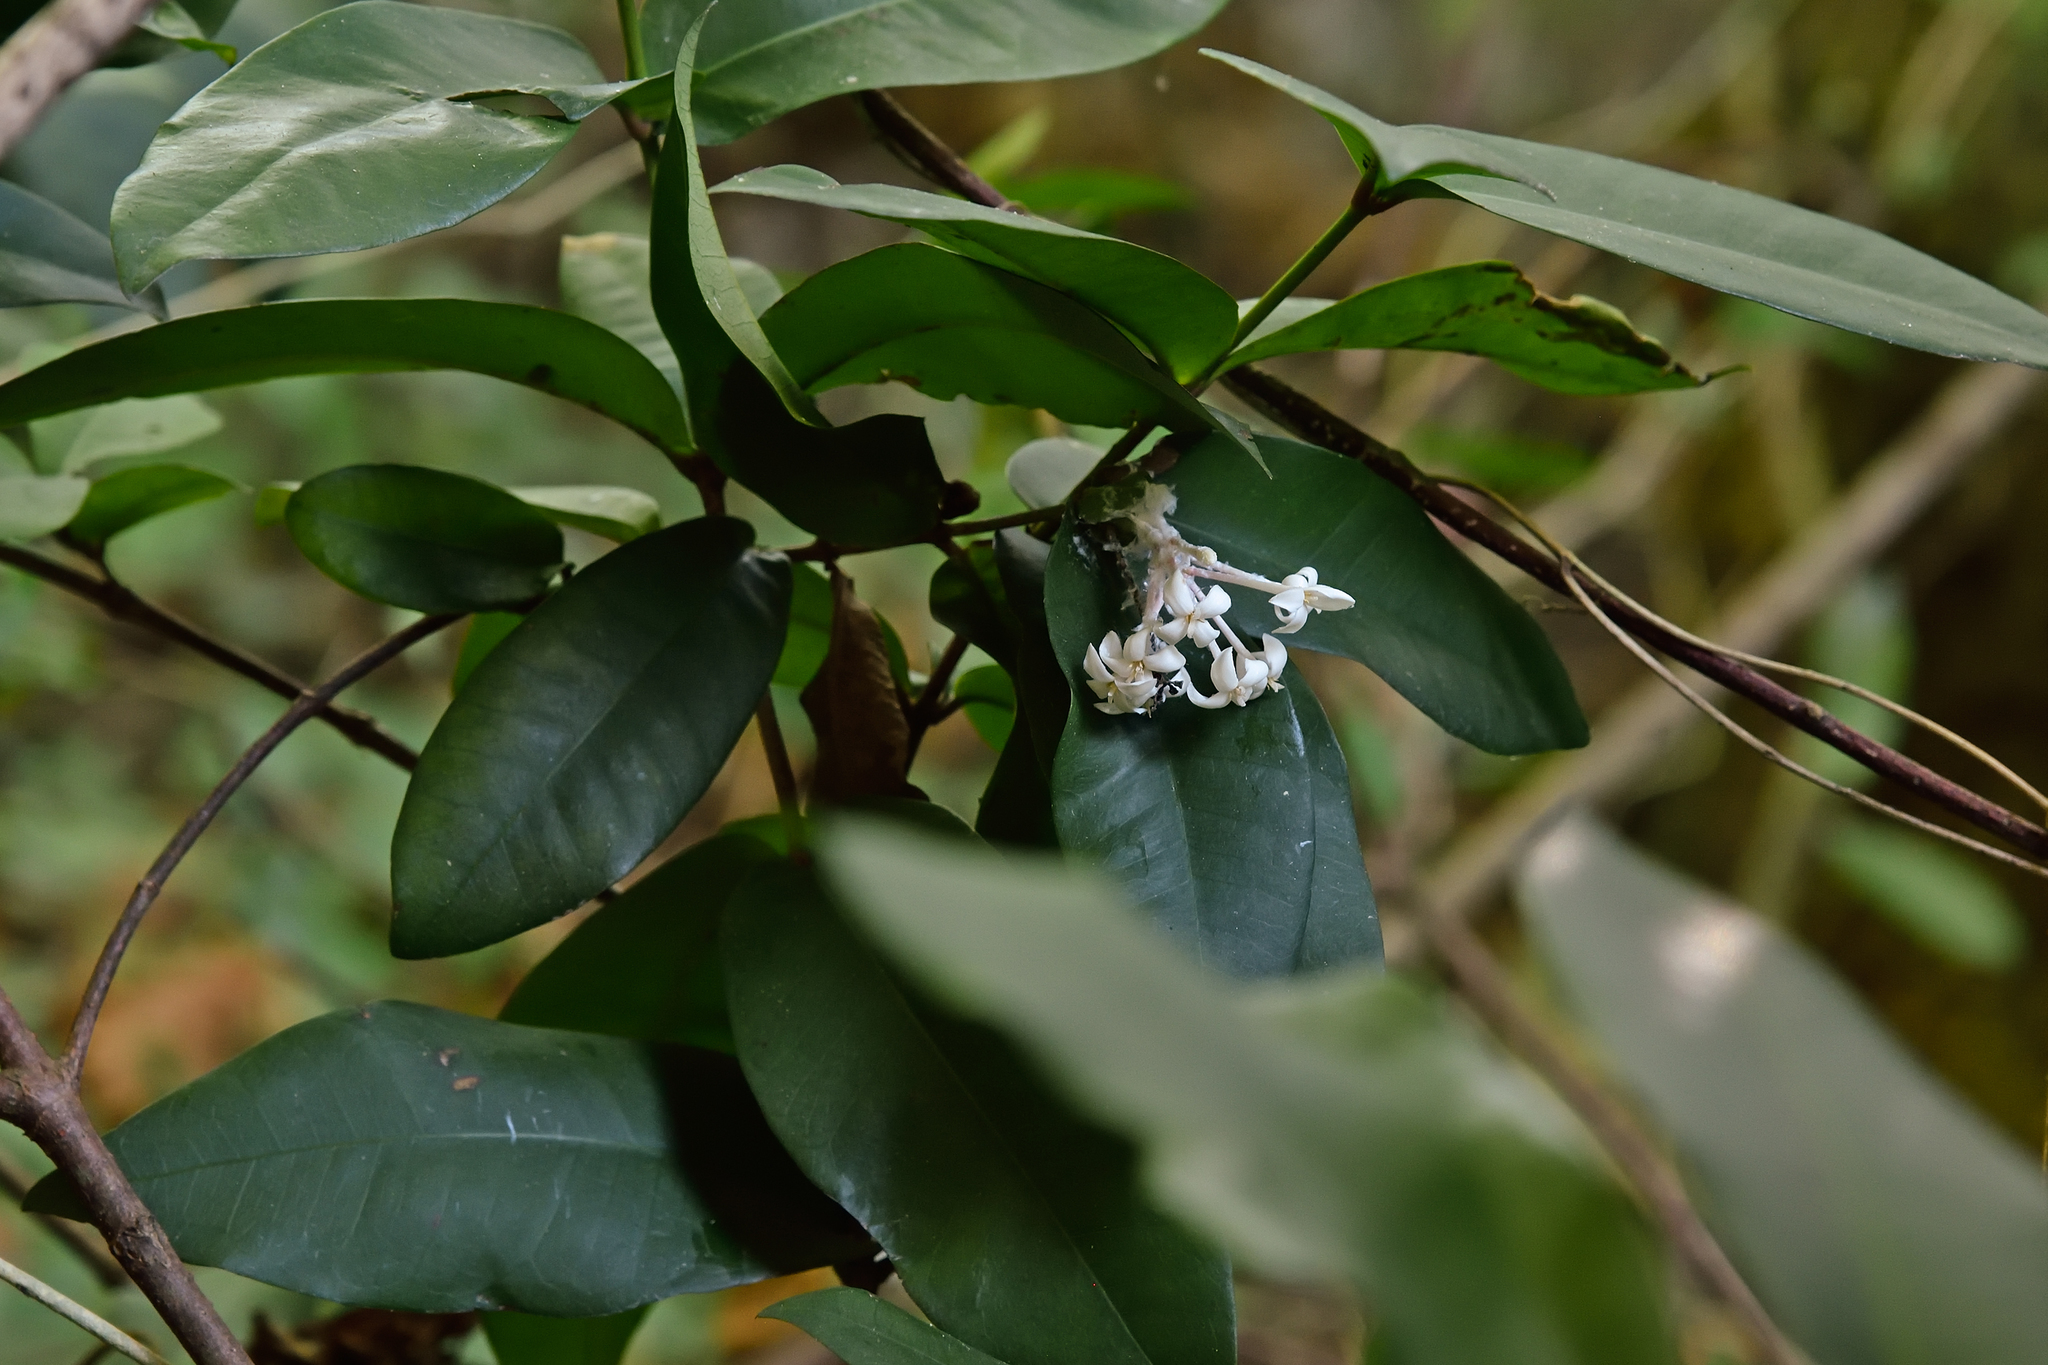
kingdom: Plantae
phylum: Tracheophyta
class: Magnoliopsida
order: Gentianales
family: Rubiaceae
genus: Ixora
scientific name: Ixora philippinensis
